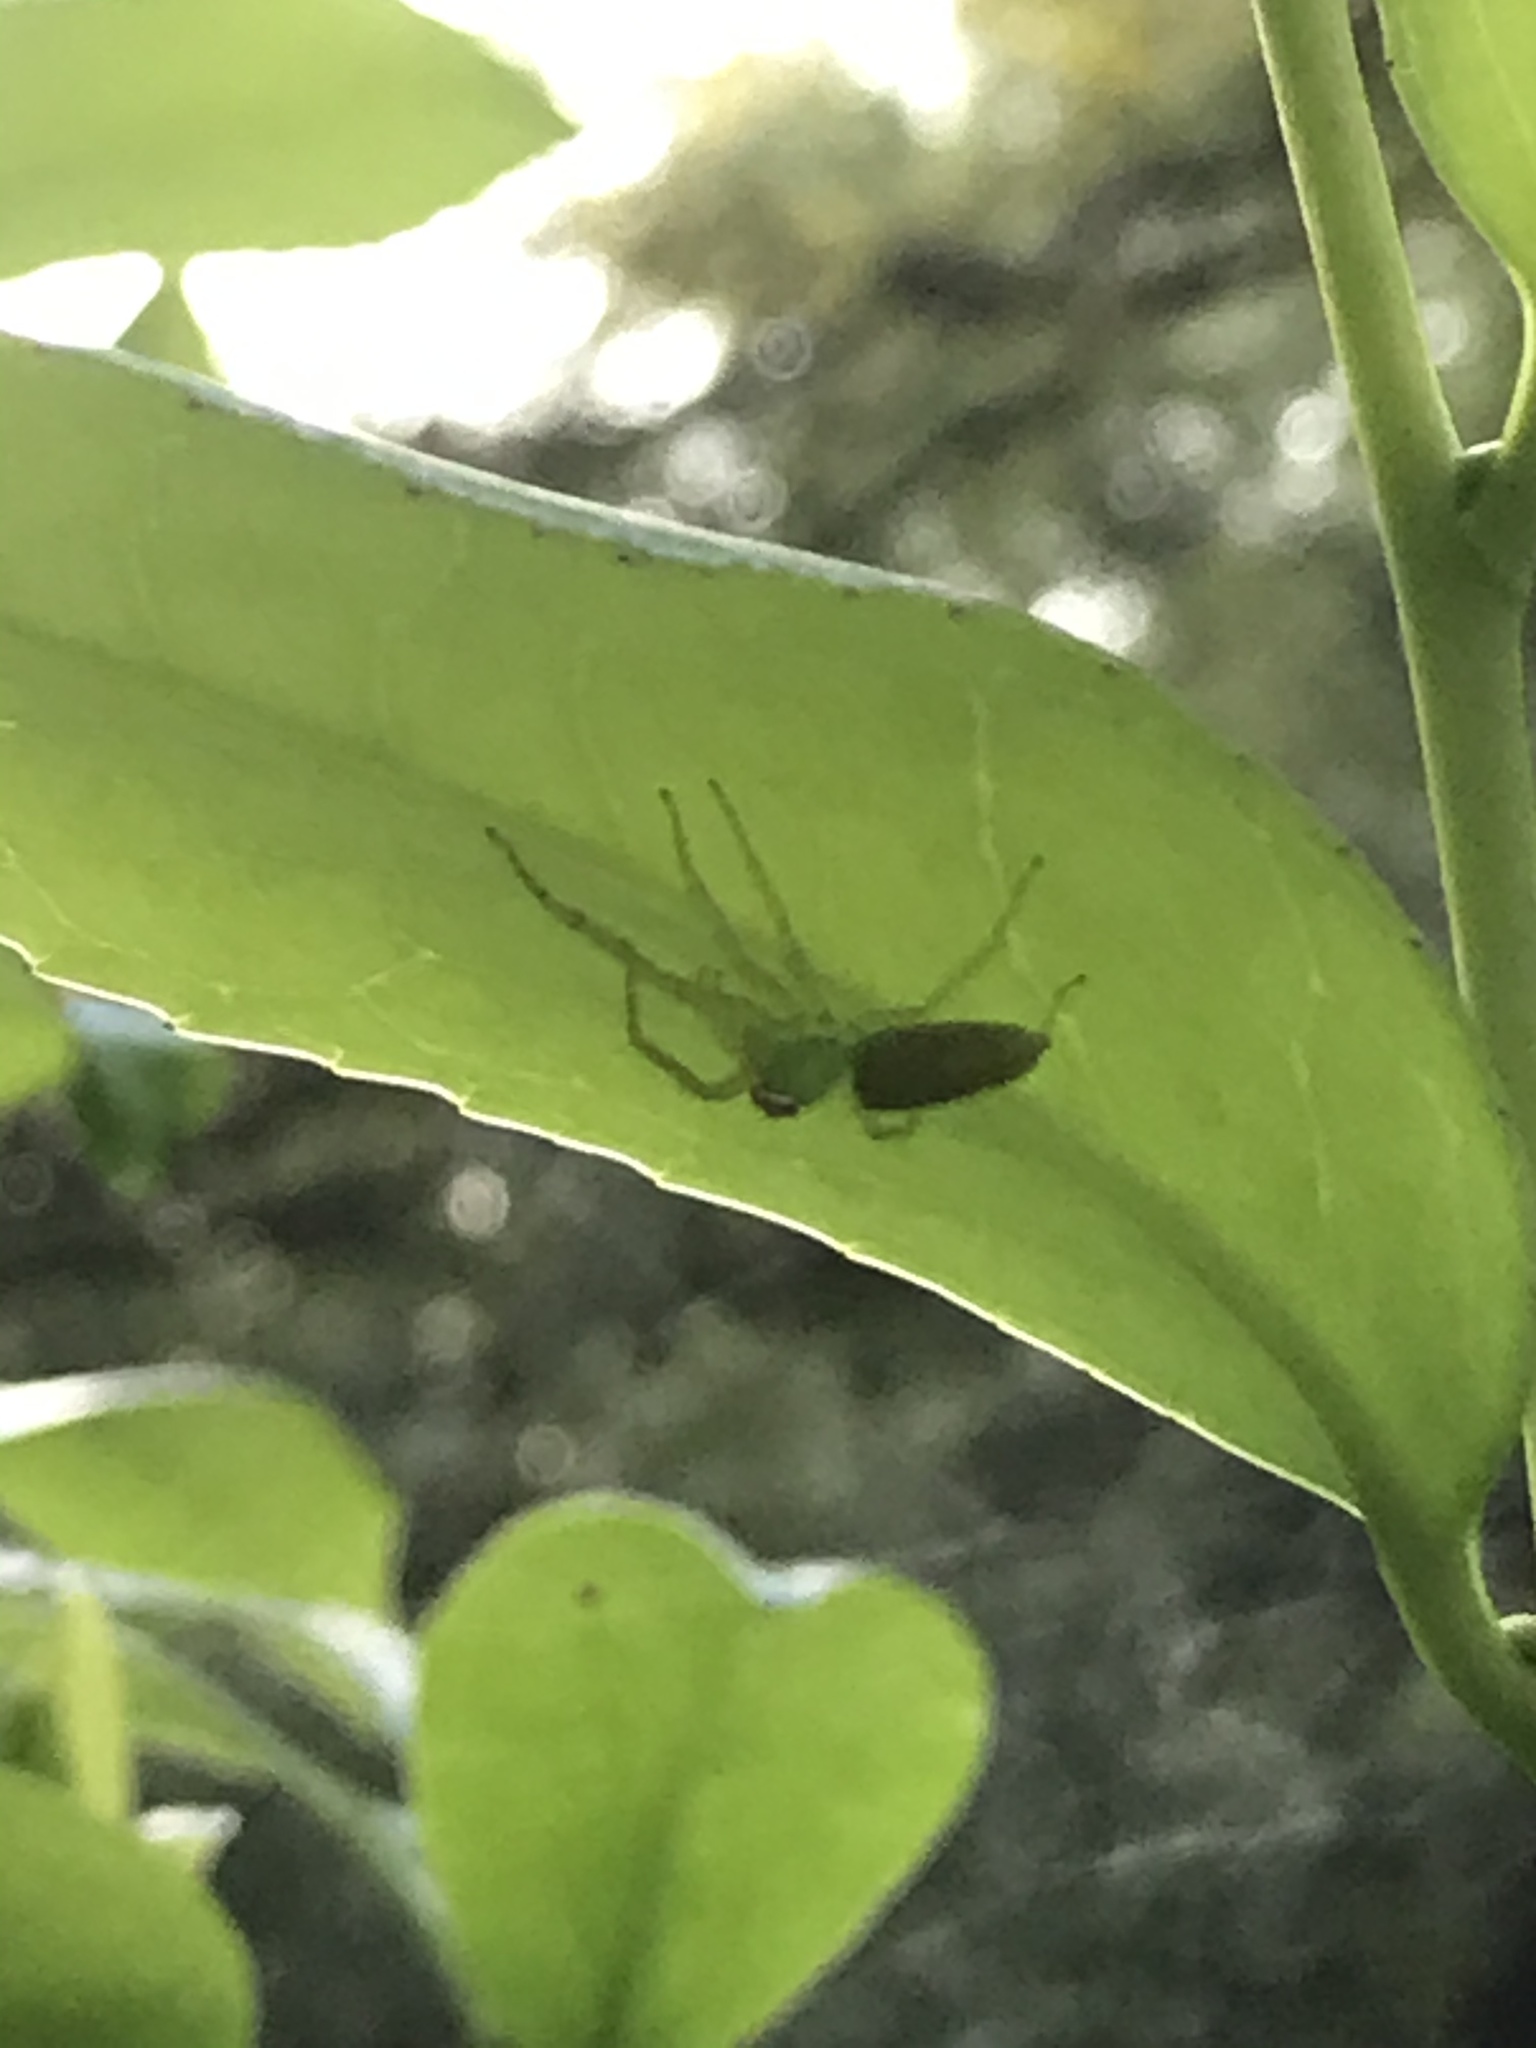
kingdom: Animalia
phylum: Arthropoda
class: Arachnida
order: Araneae
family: Salticidae
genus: Lyssomanes
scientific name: Lyssomanes viridis
